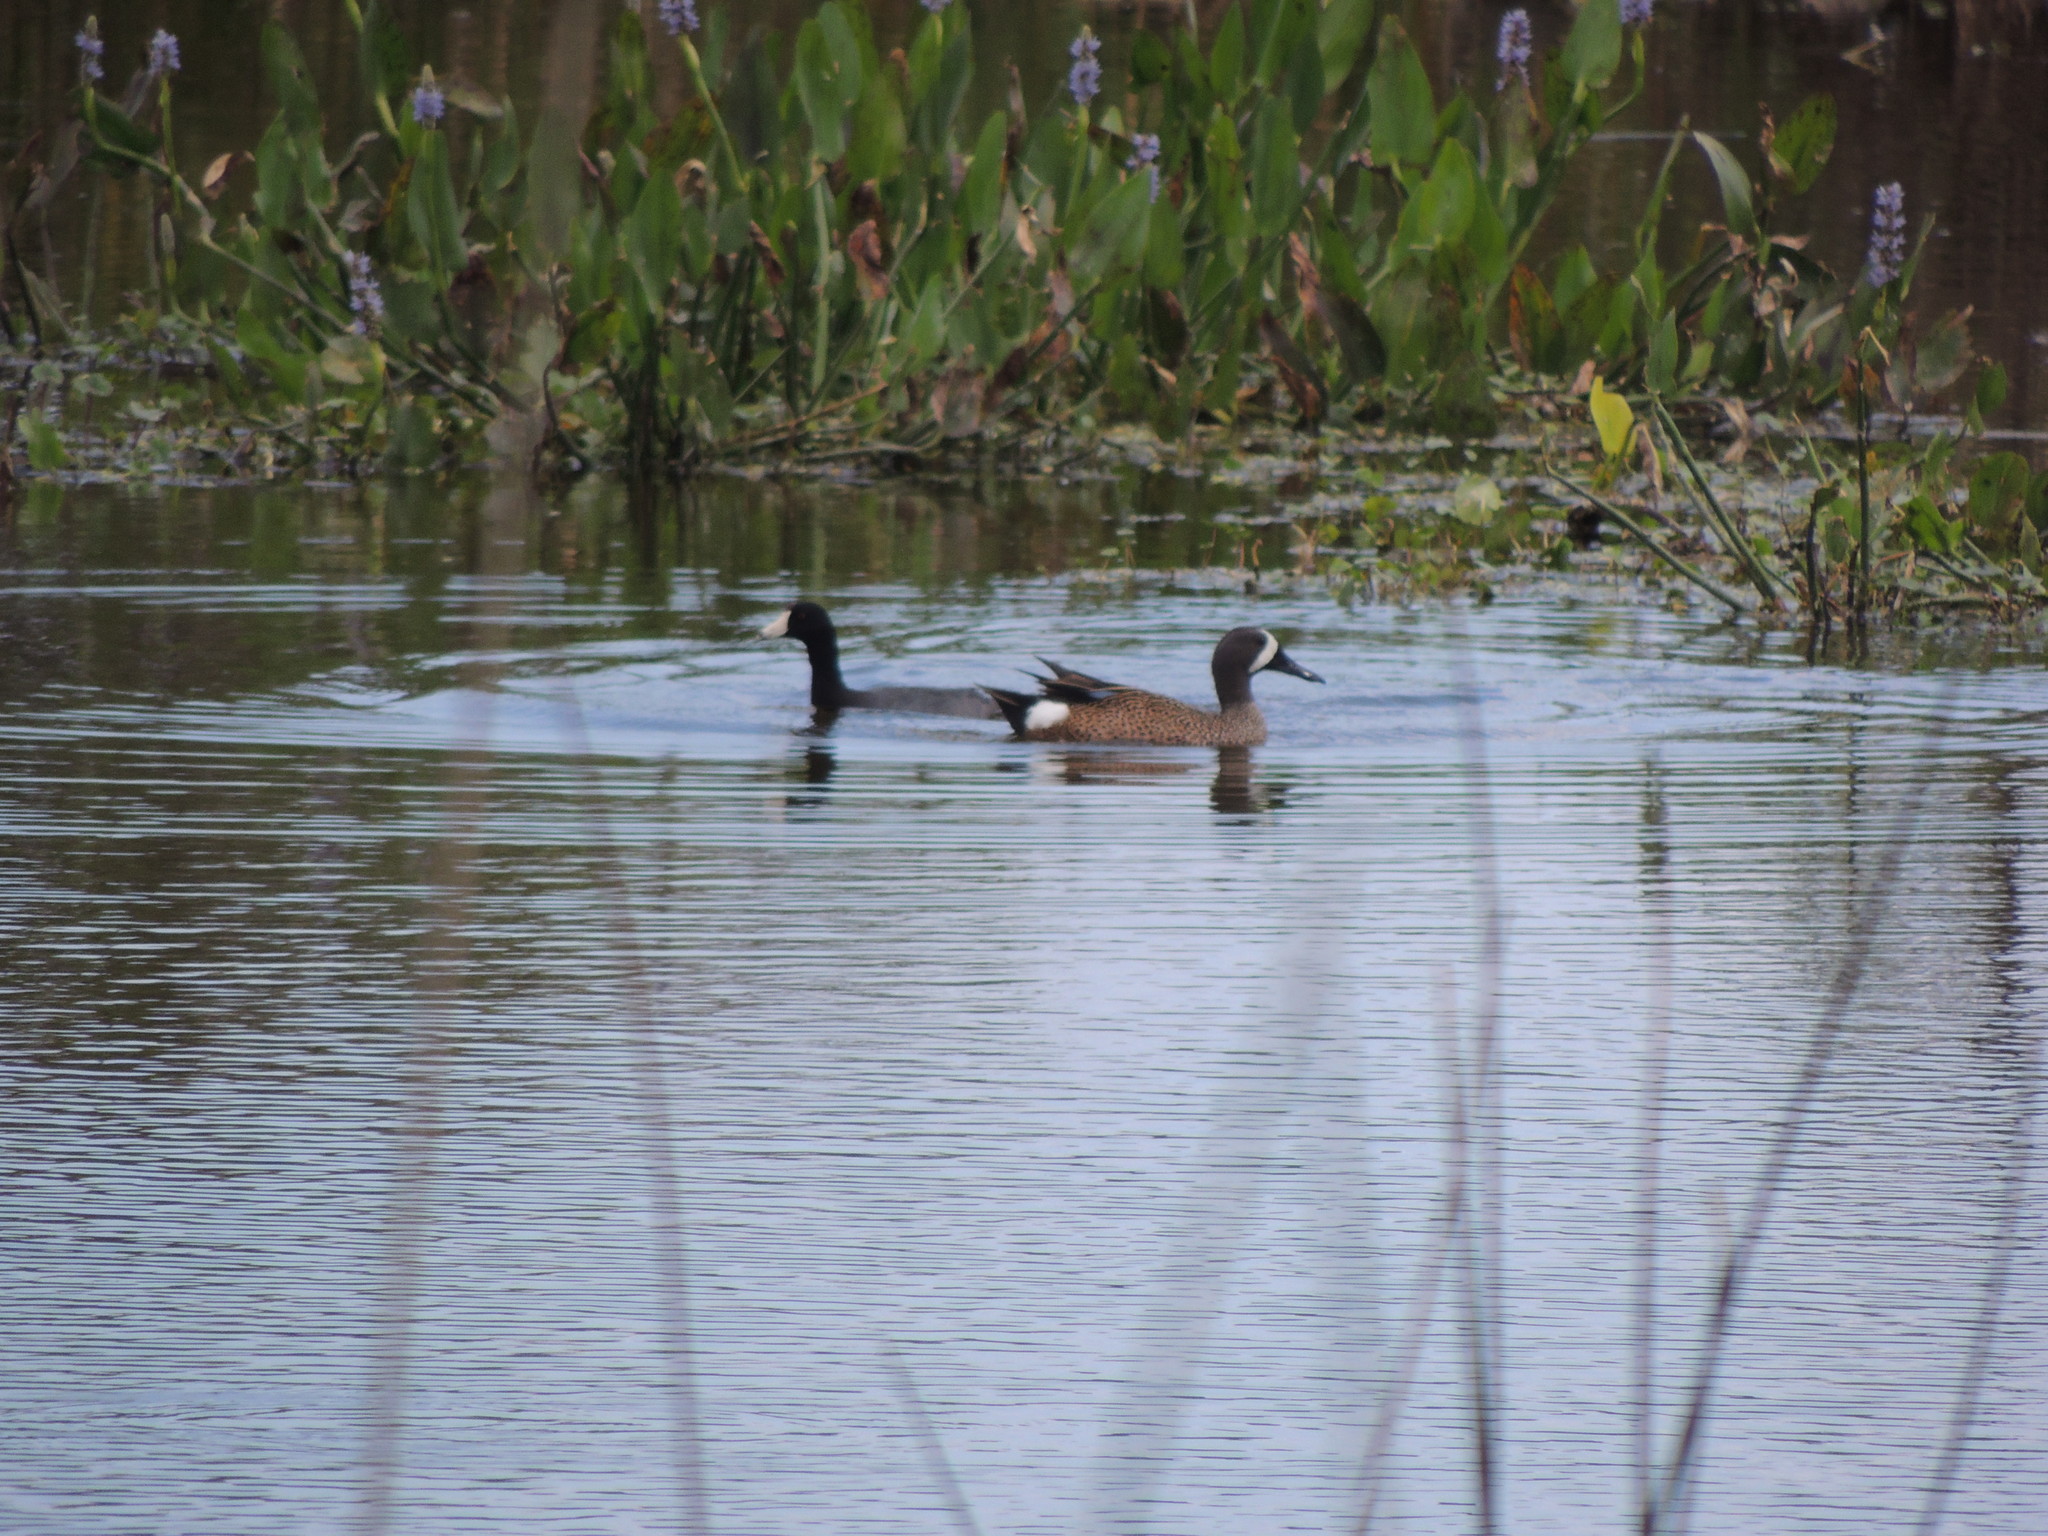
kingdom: Animalia
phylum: Chordata
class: Aves
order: Anseriformes
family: Anatidae
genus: Spatula
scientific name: Spatula discors
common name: Blue-winged teal
